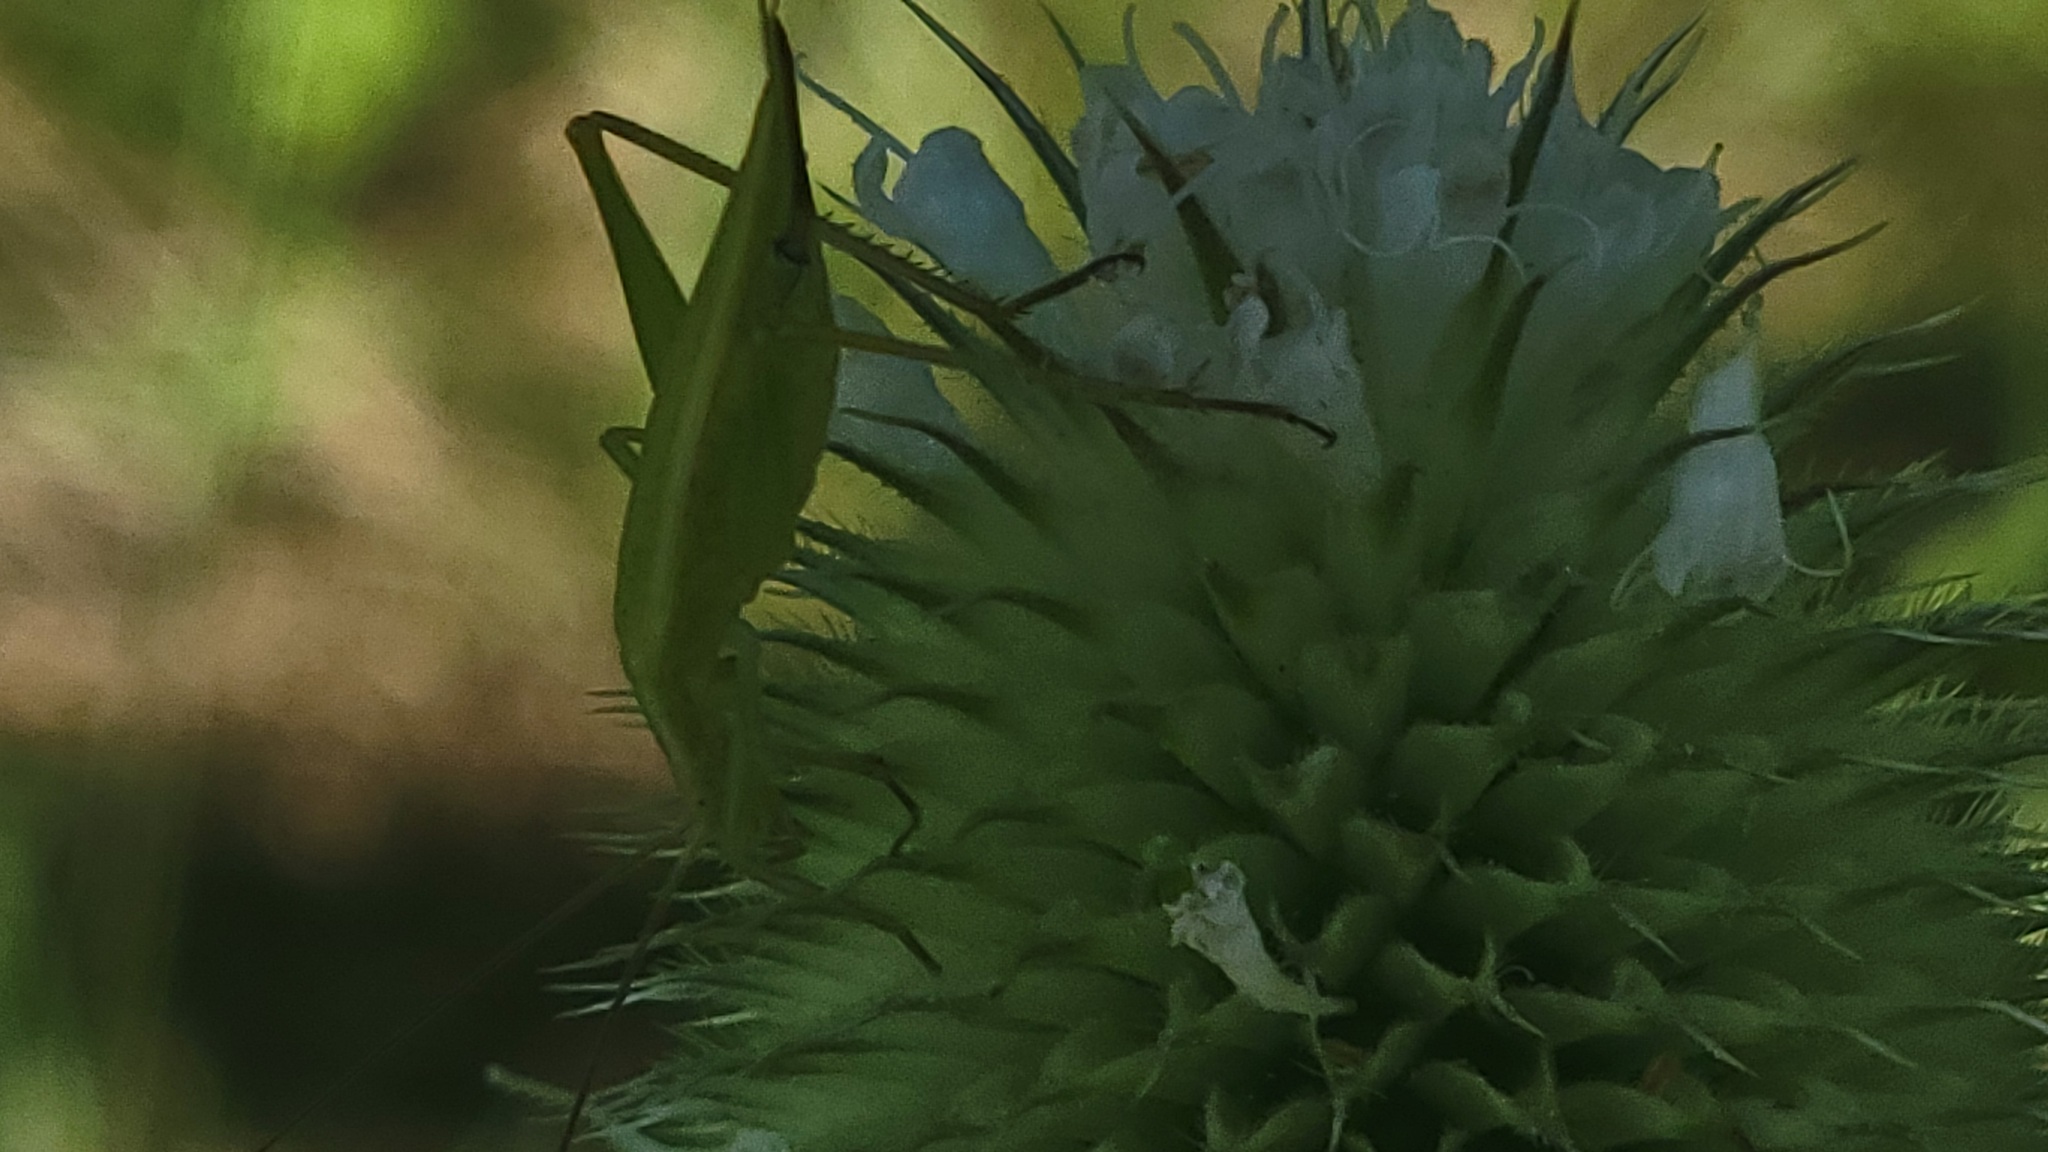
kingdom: Animalia
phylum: Arthropoda
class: Insecta
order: Orthoptera
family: Gryllidae
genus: Oecanthus
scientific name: Oecanthus
